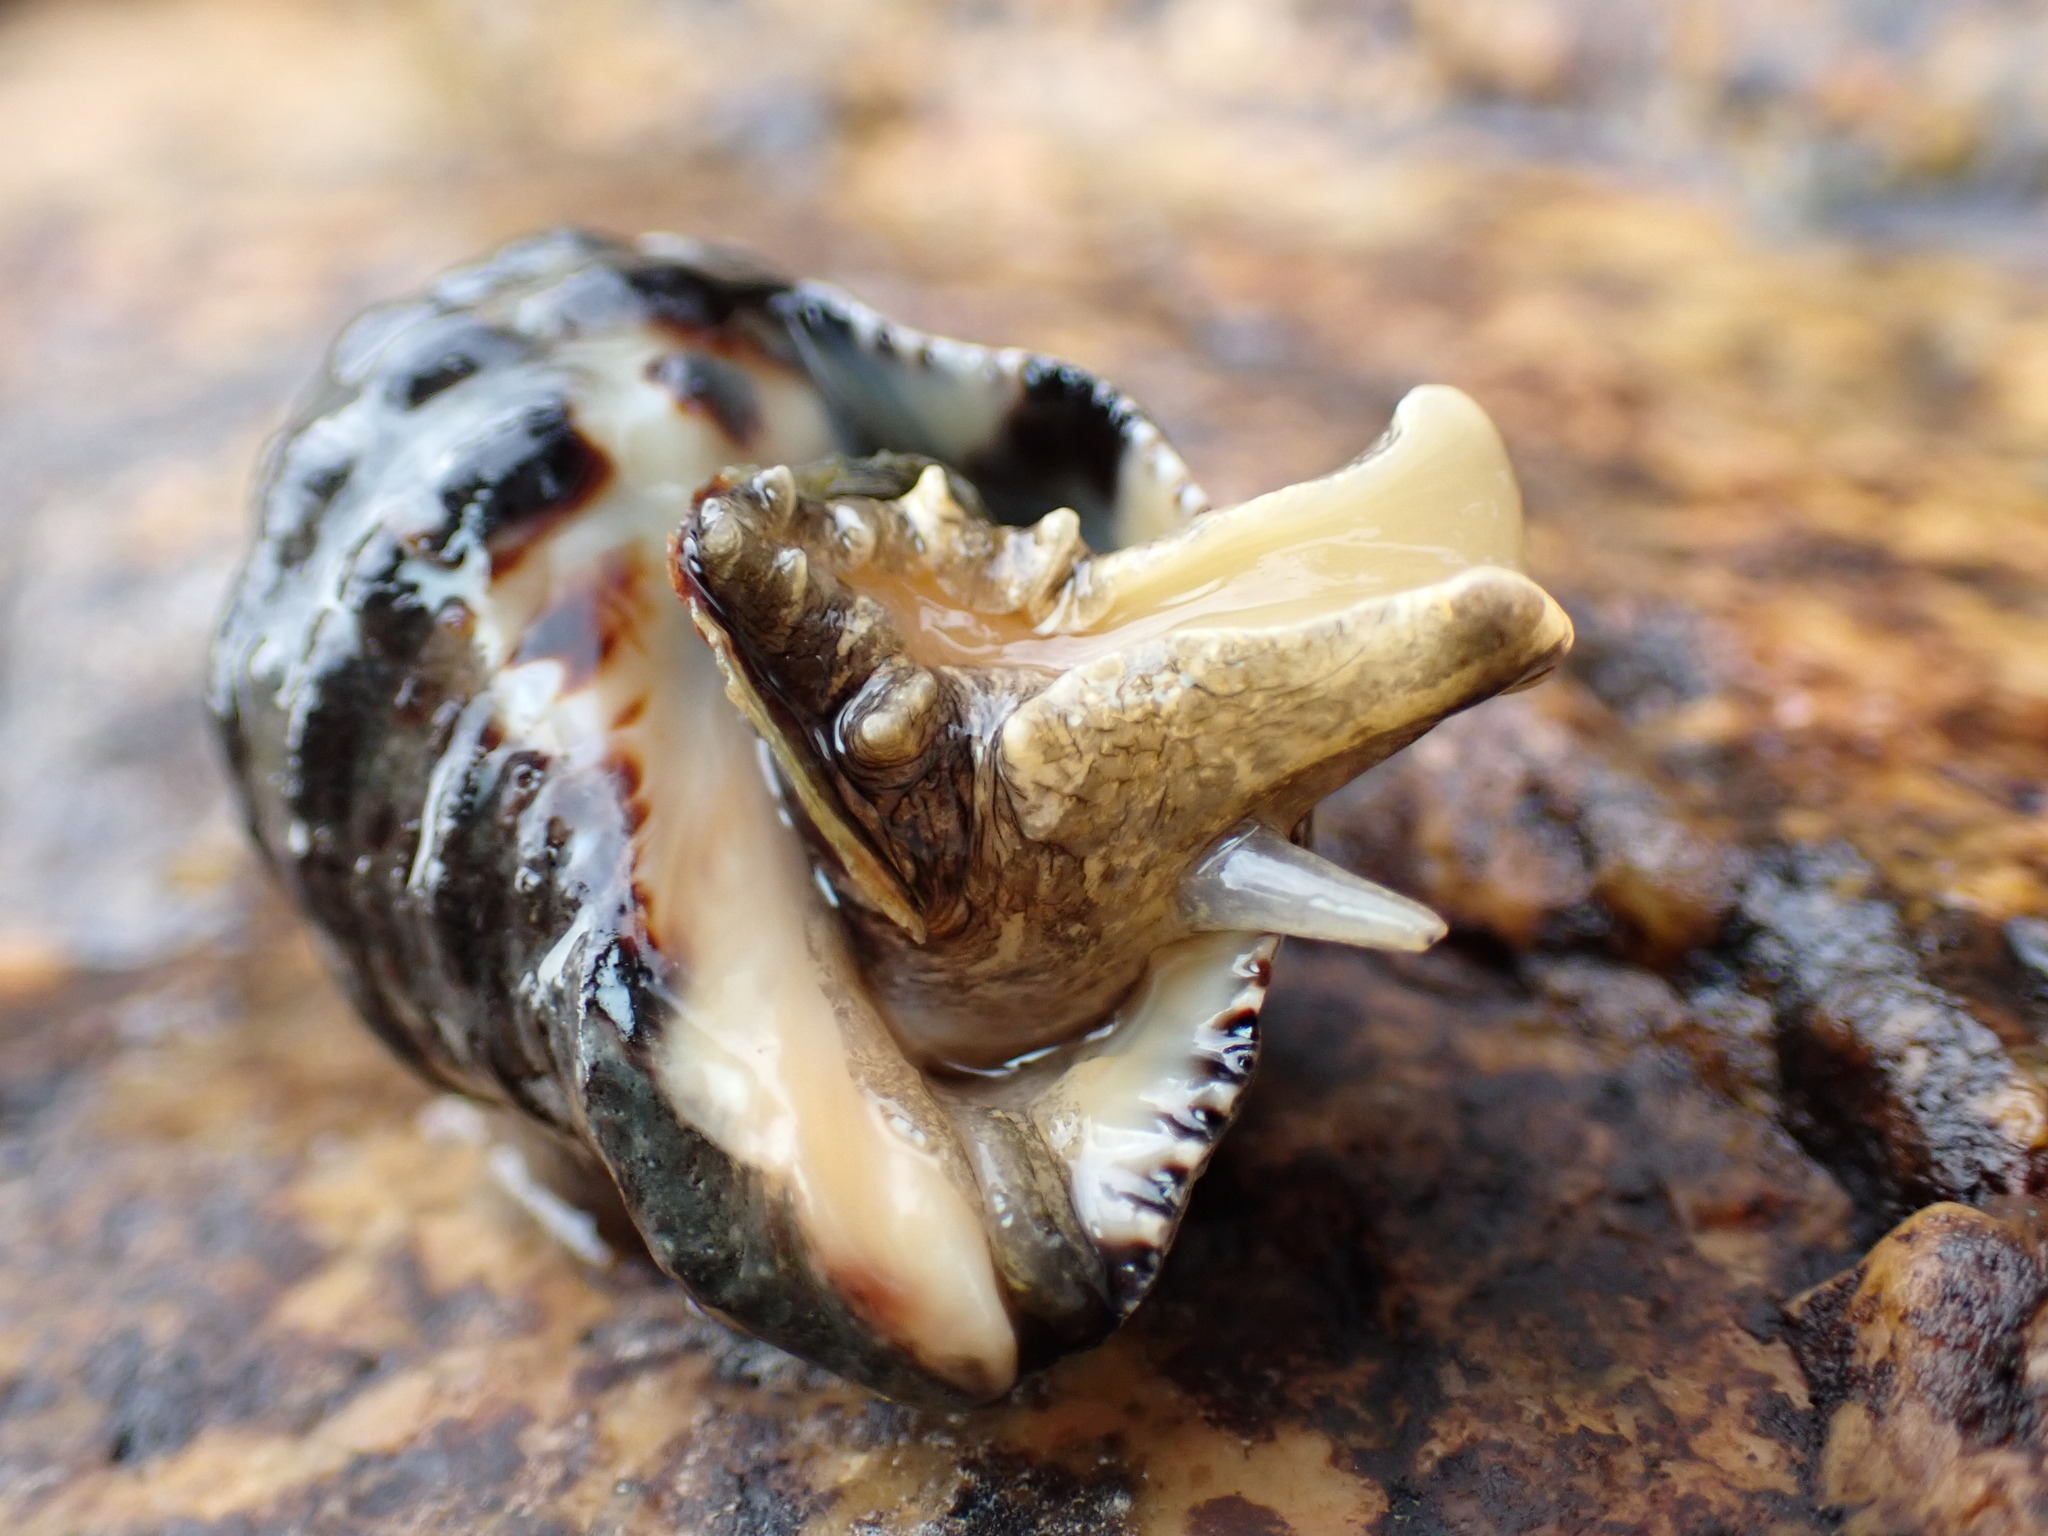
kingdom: Animalia
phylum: Mollusca
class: Gastropoda
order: Neogastropoda
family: Muricidae
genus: Reishia
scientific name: Reishia clavigera
